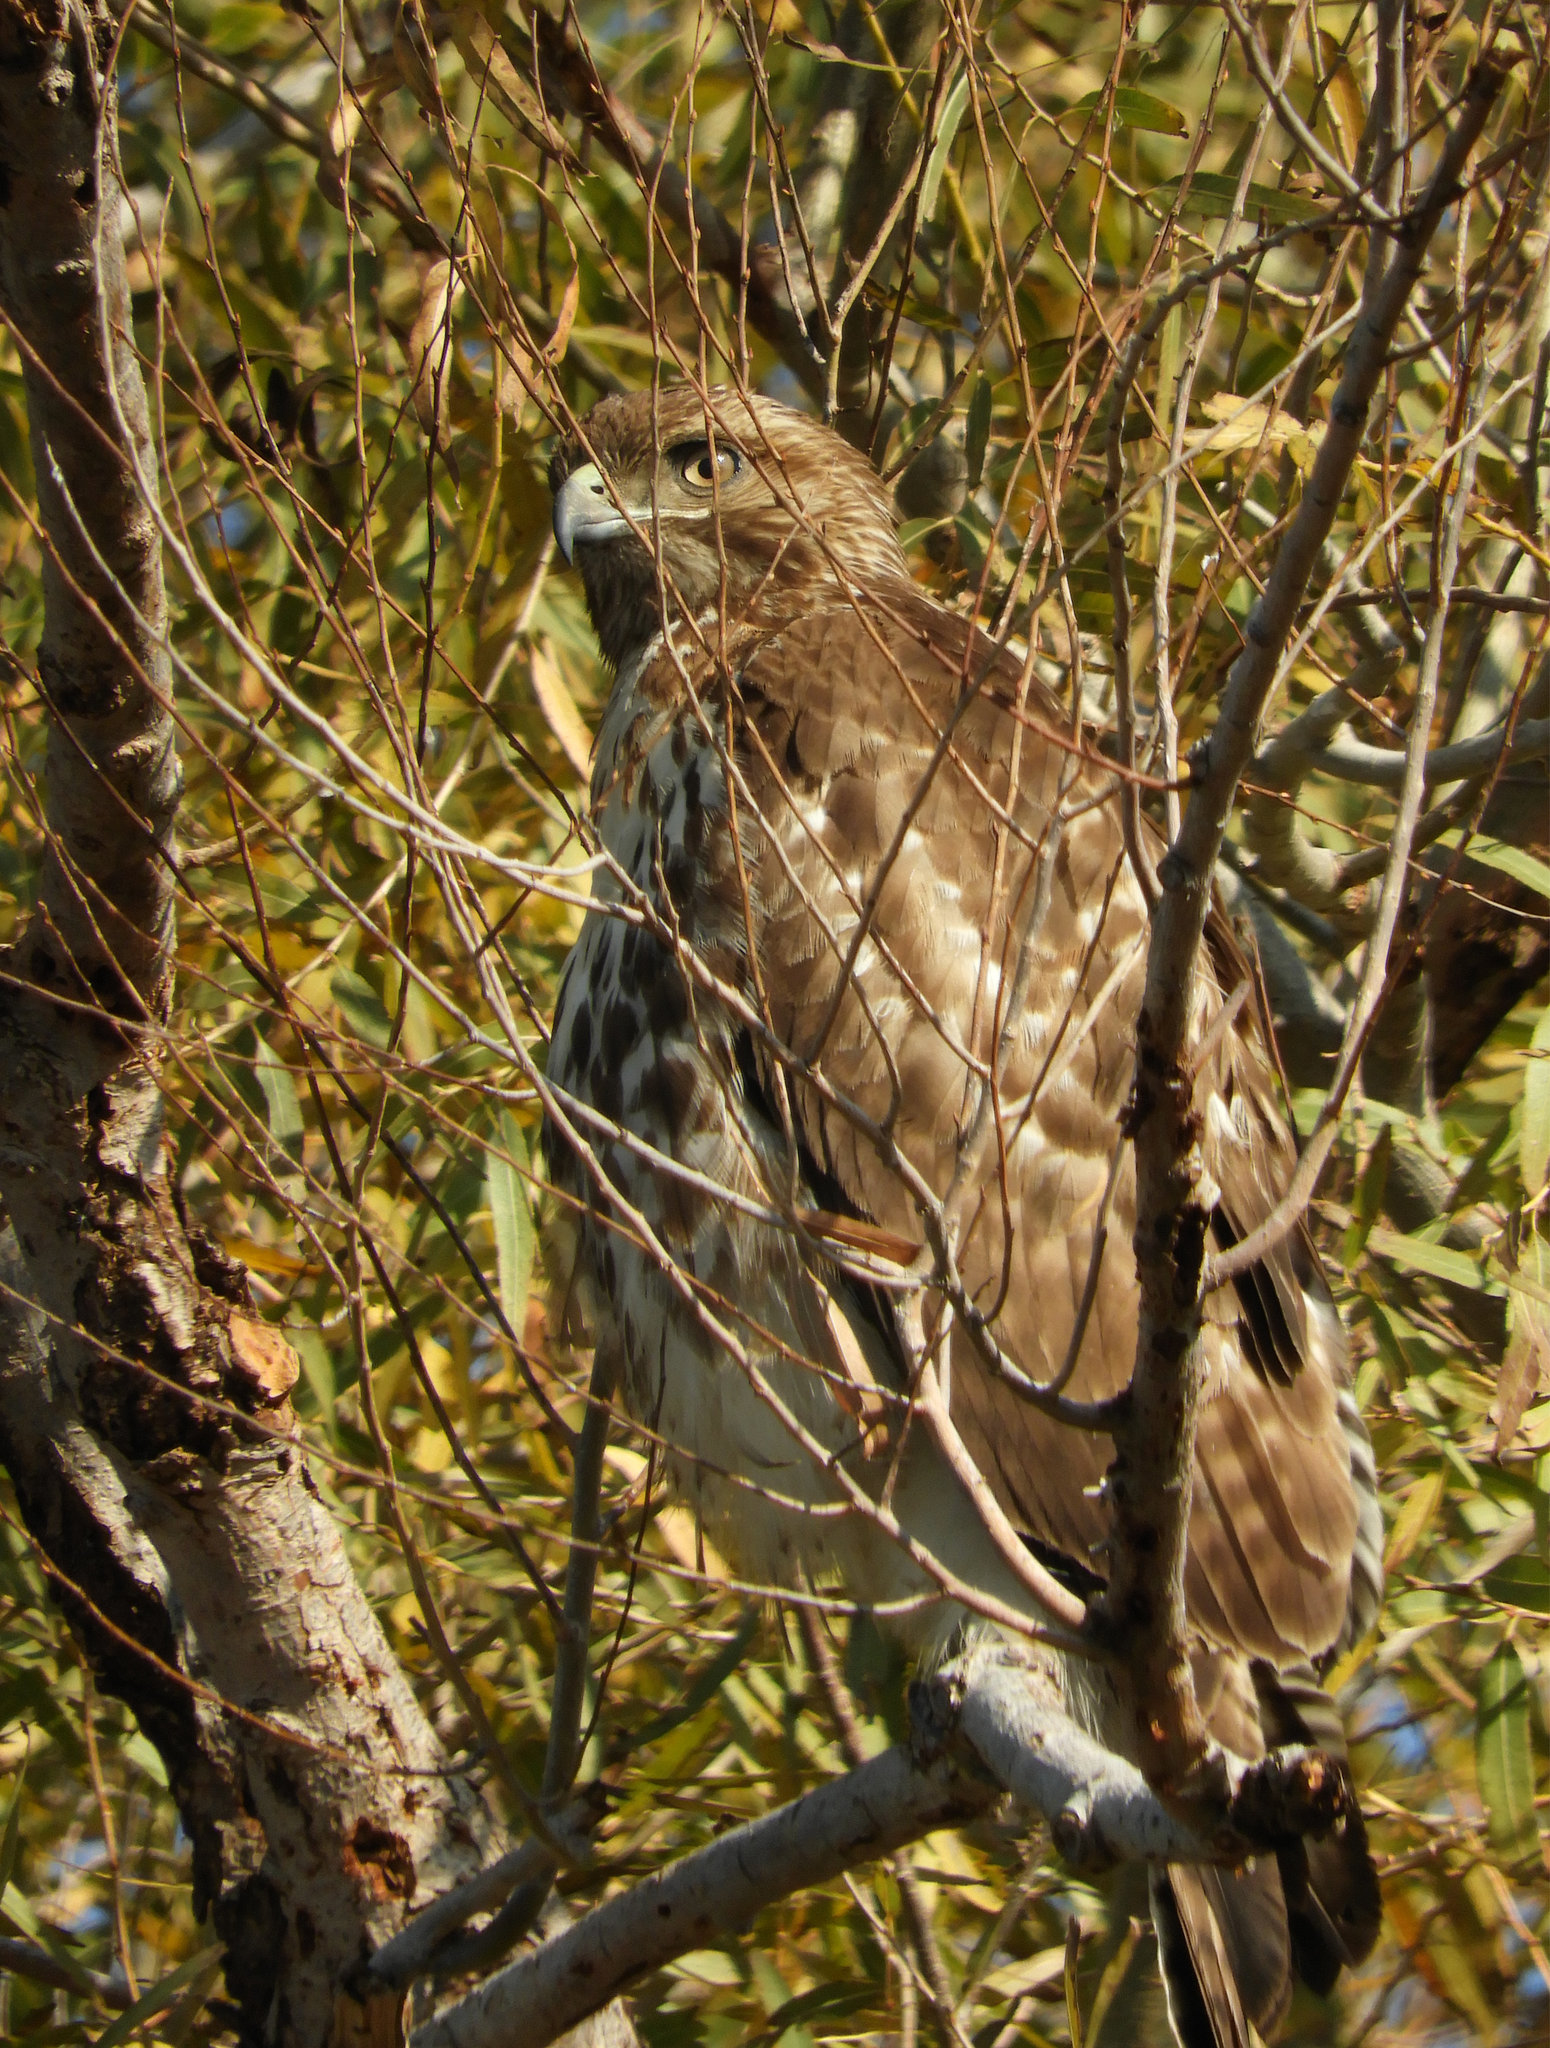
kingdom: Animalia
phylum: Chordata
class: Aves
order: Accipitriformes
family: Accipitridae
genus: Buteo
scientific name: Buteo jamaicensis
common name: Red-tailed hawk
